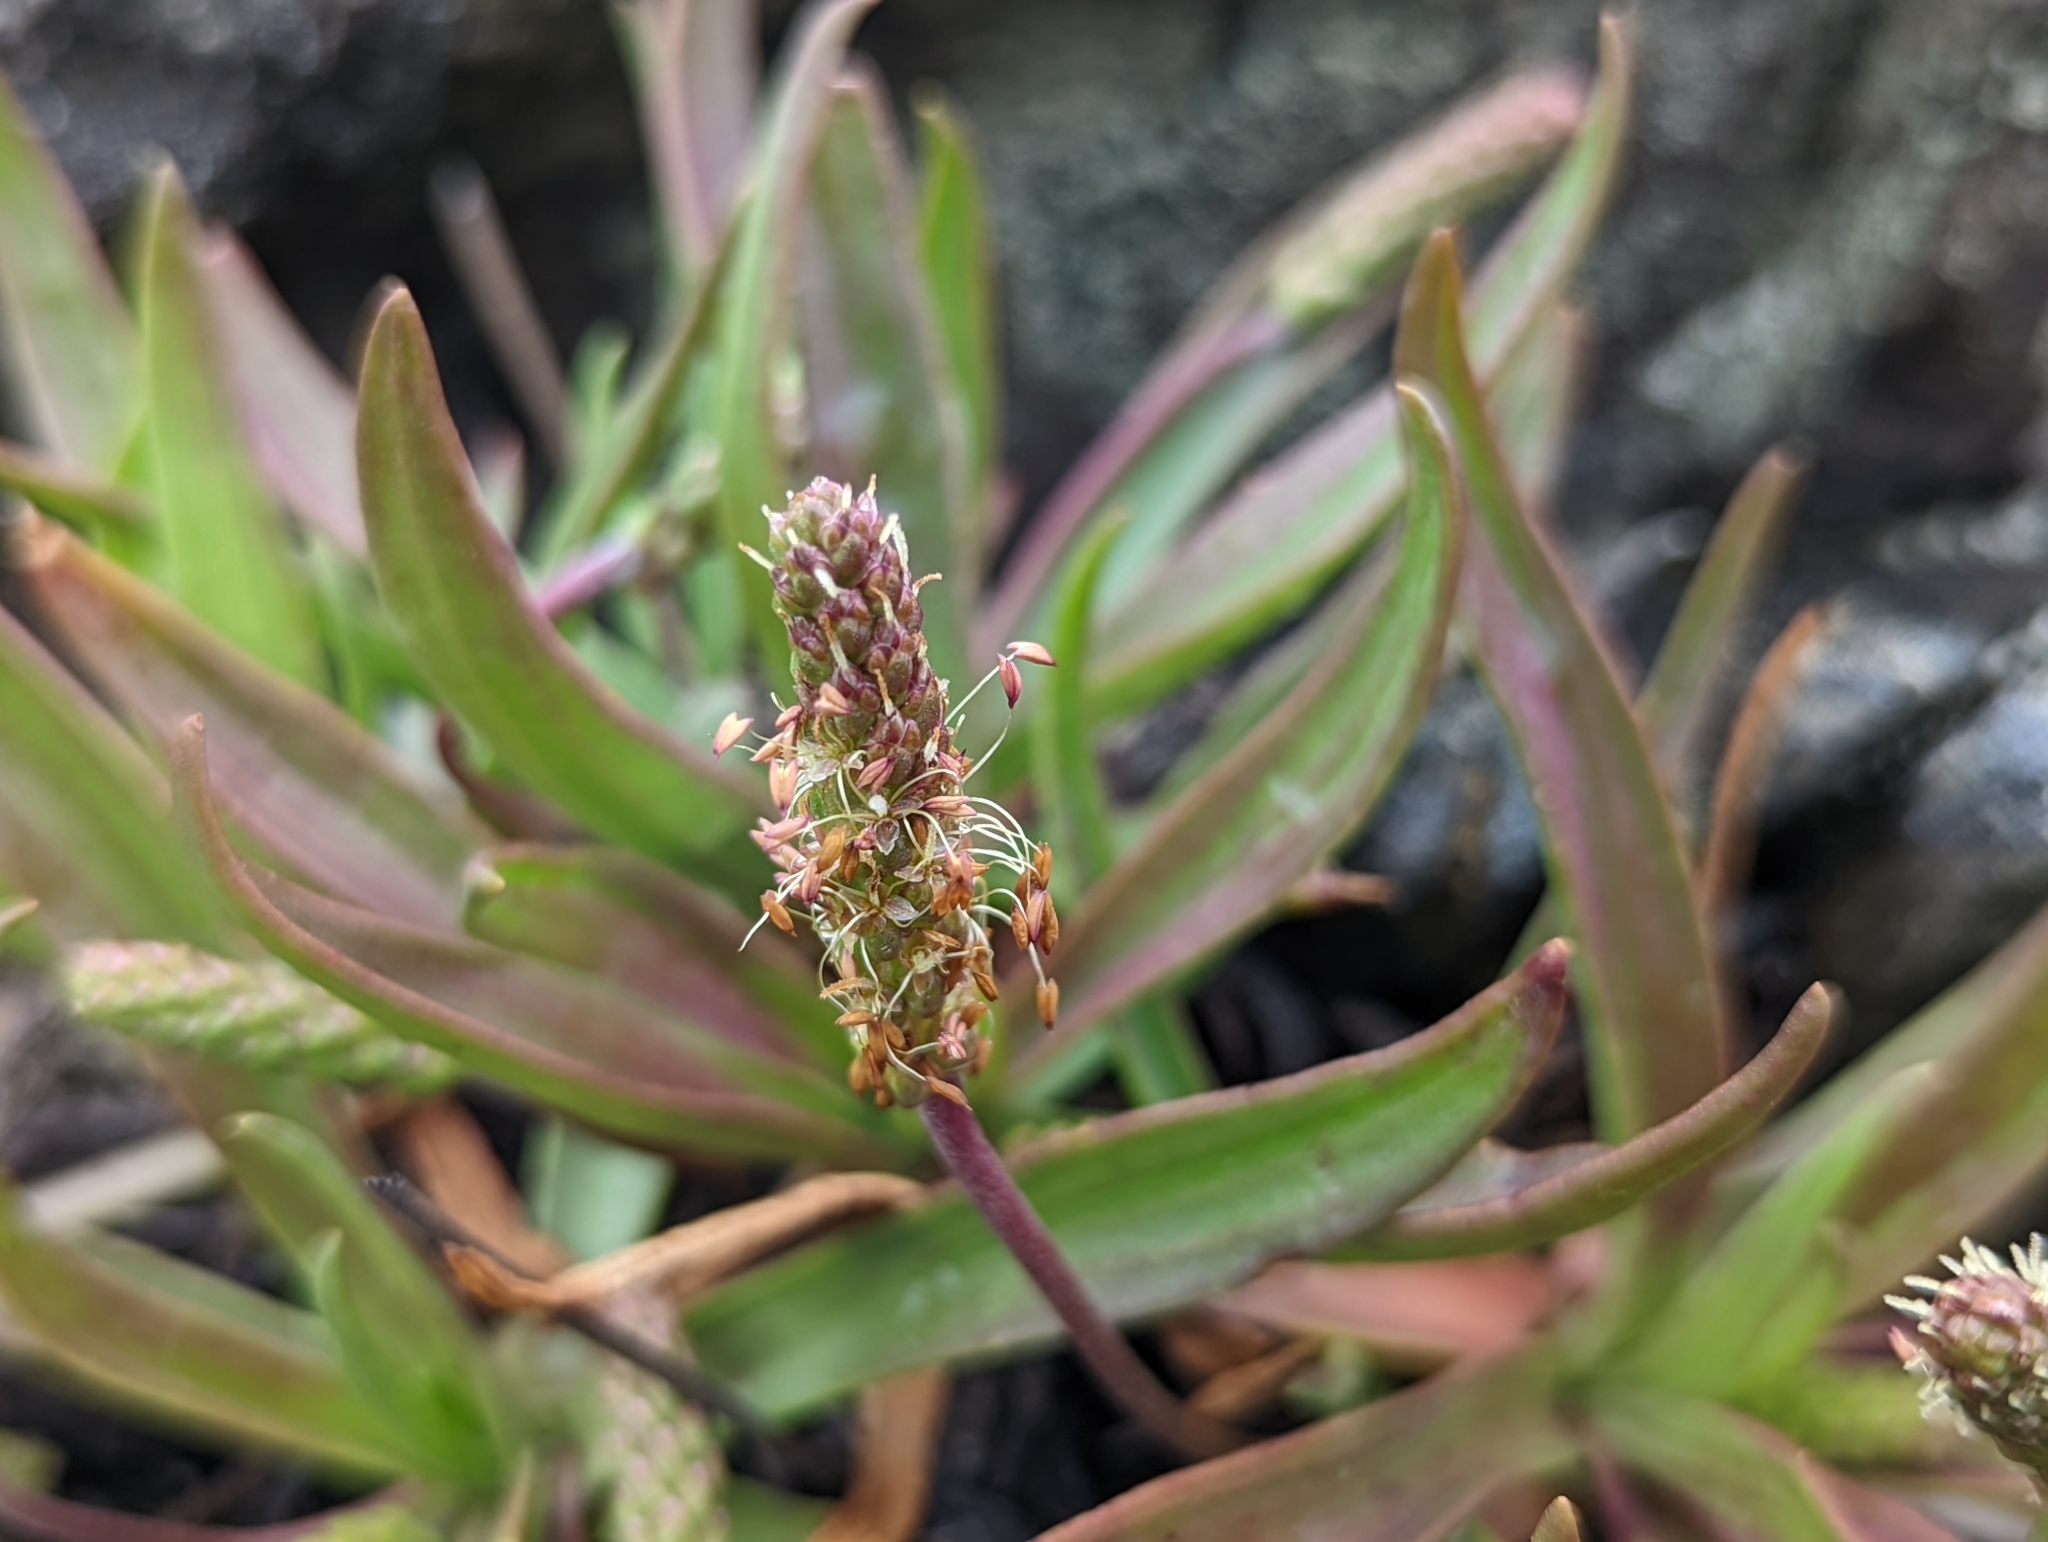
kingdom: Plantae
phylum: Tracheophyta
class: Magnoliopsida
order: Lamiales
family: Plantaginaceae
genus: Plantago
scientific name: Plantago maritima
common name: Sea plantain
